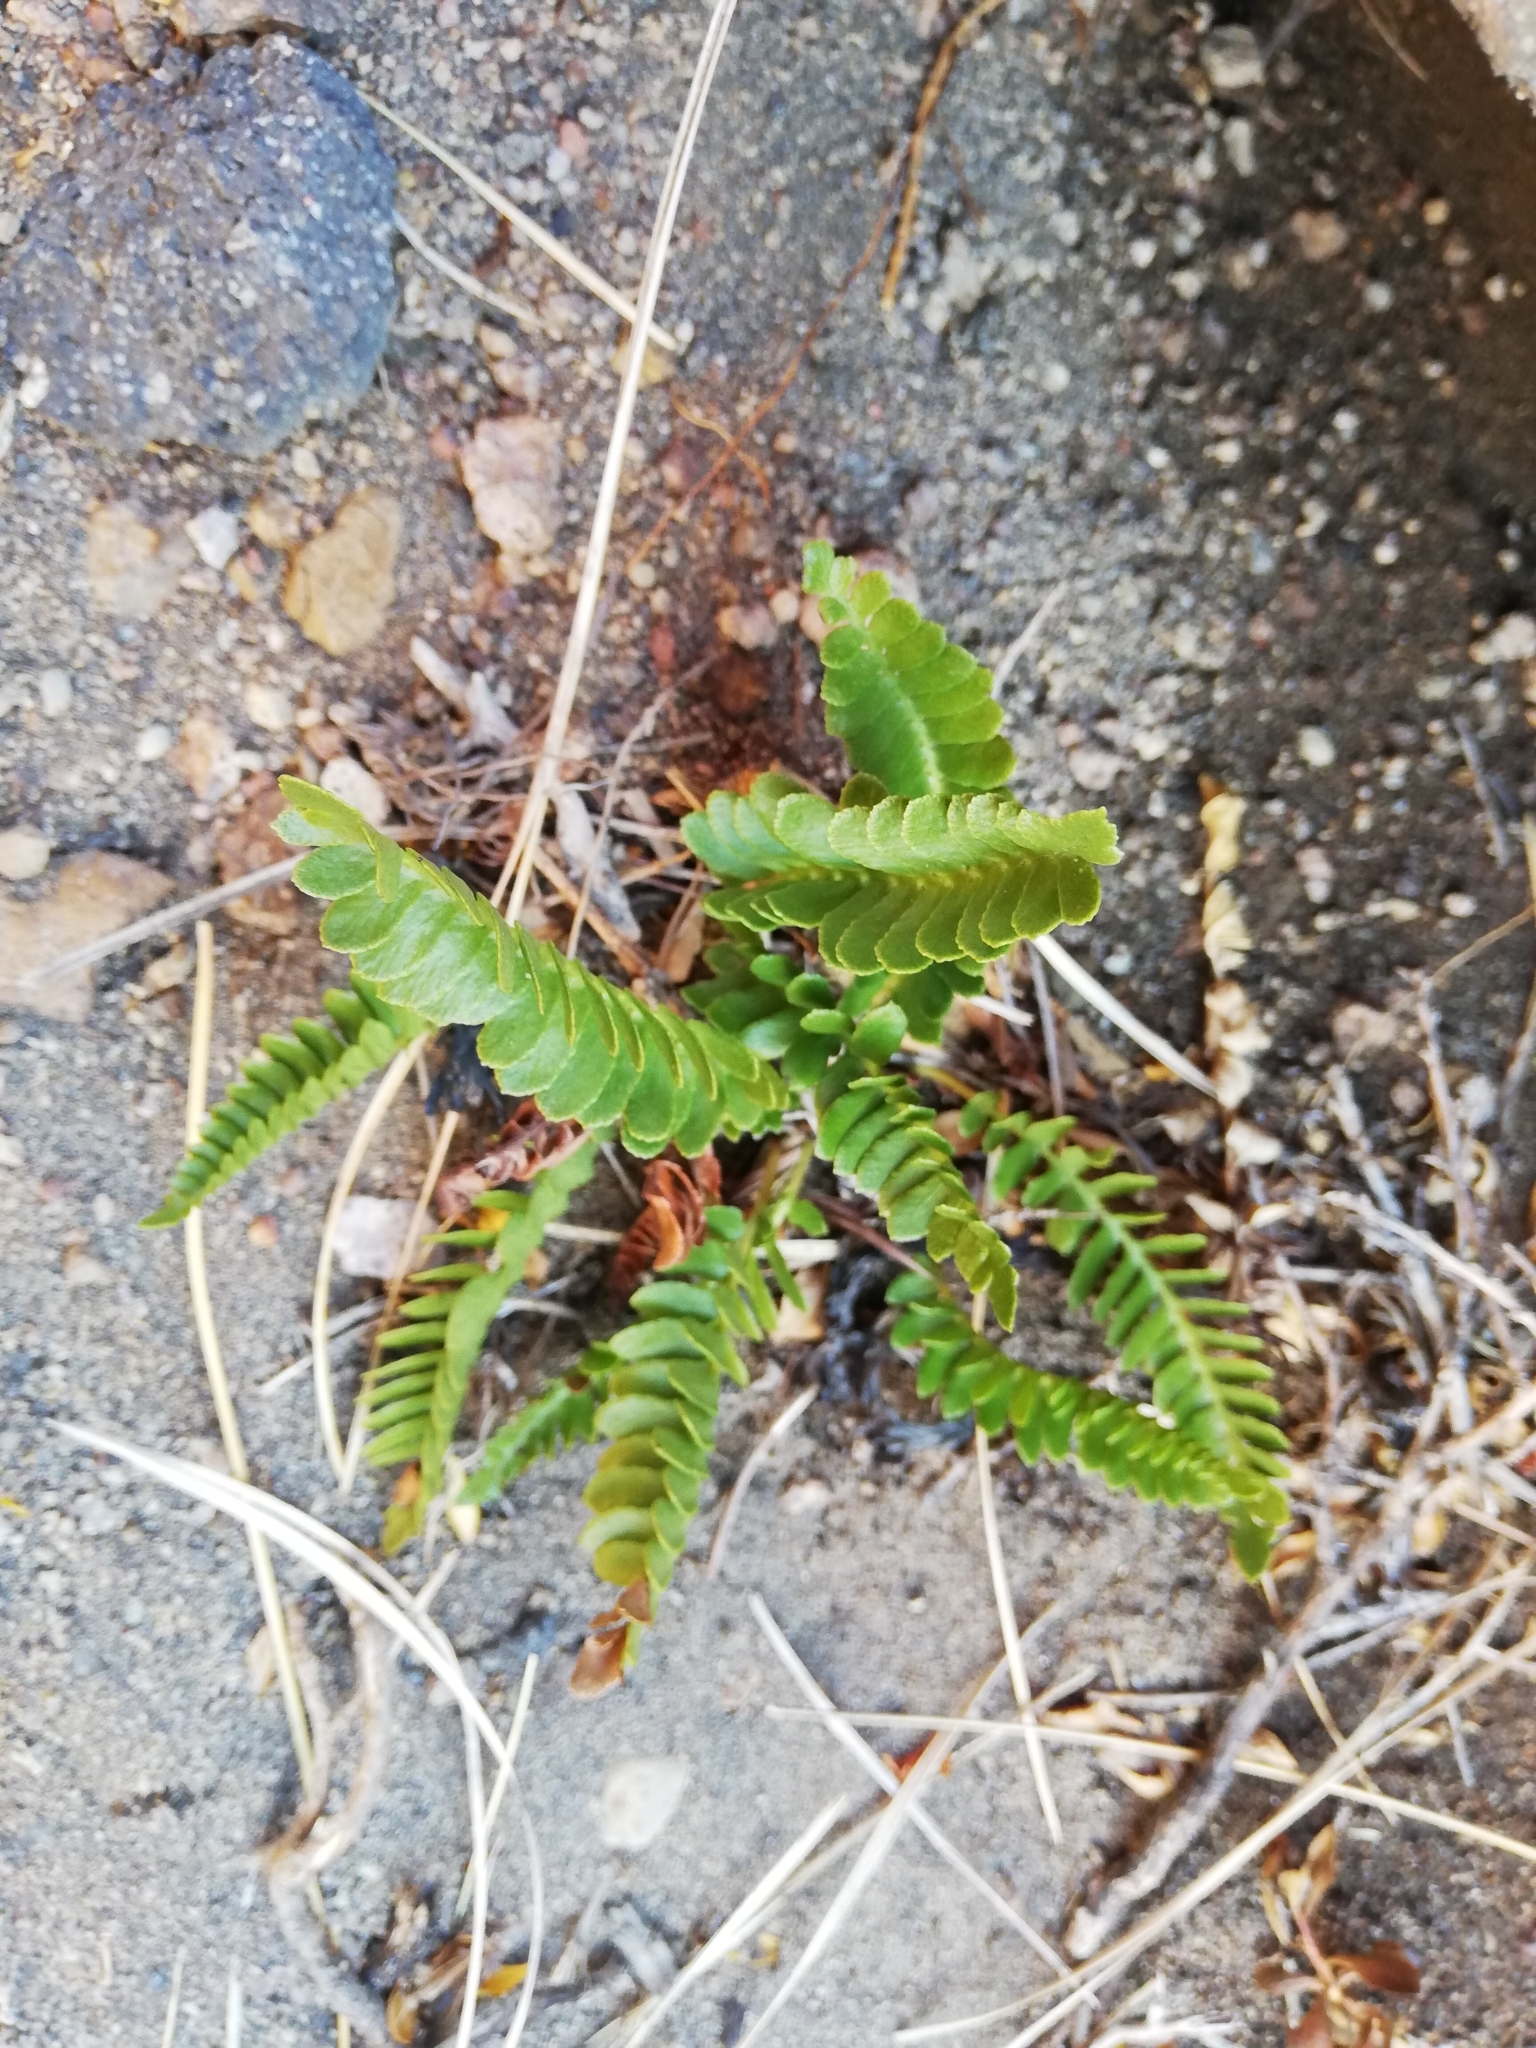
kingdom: Plantae
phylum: Tracheophyta
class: Polypodiopsida
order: Polypodiales
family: Blechnaceae
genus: Austroblechnum
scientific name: Austroblechnum microphyllum
